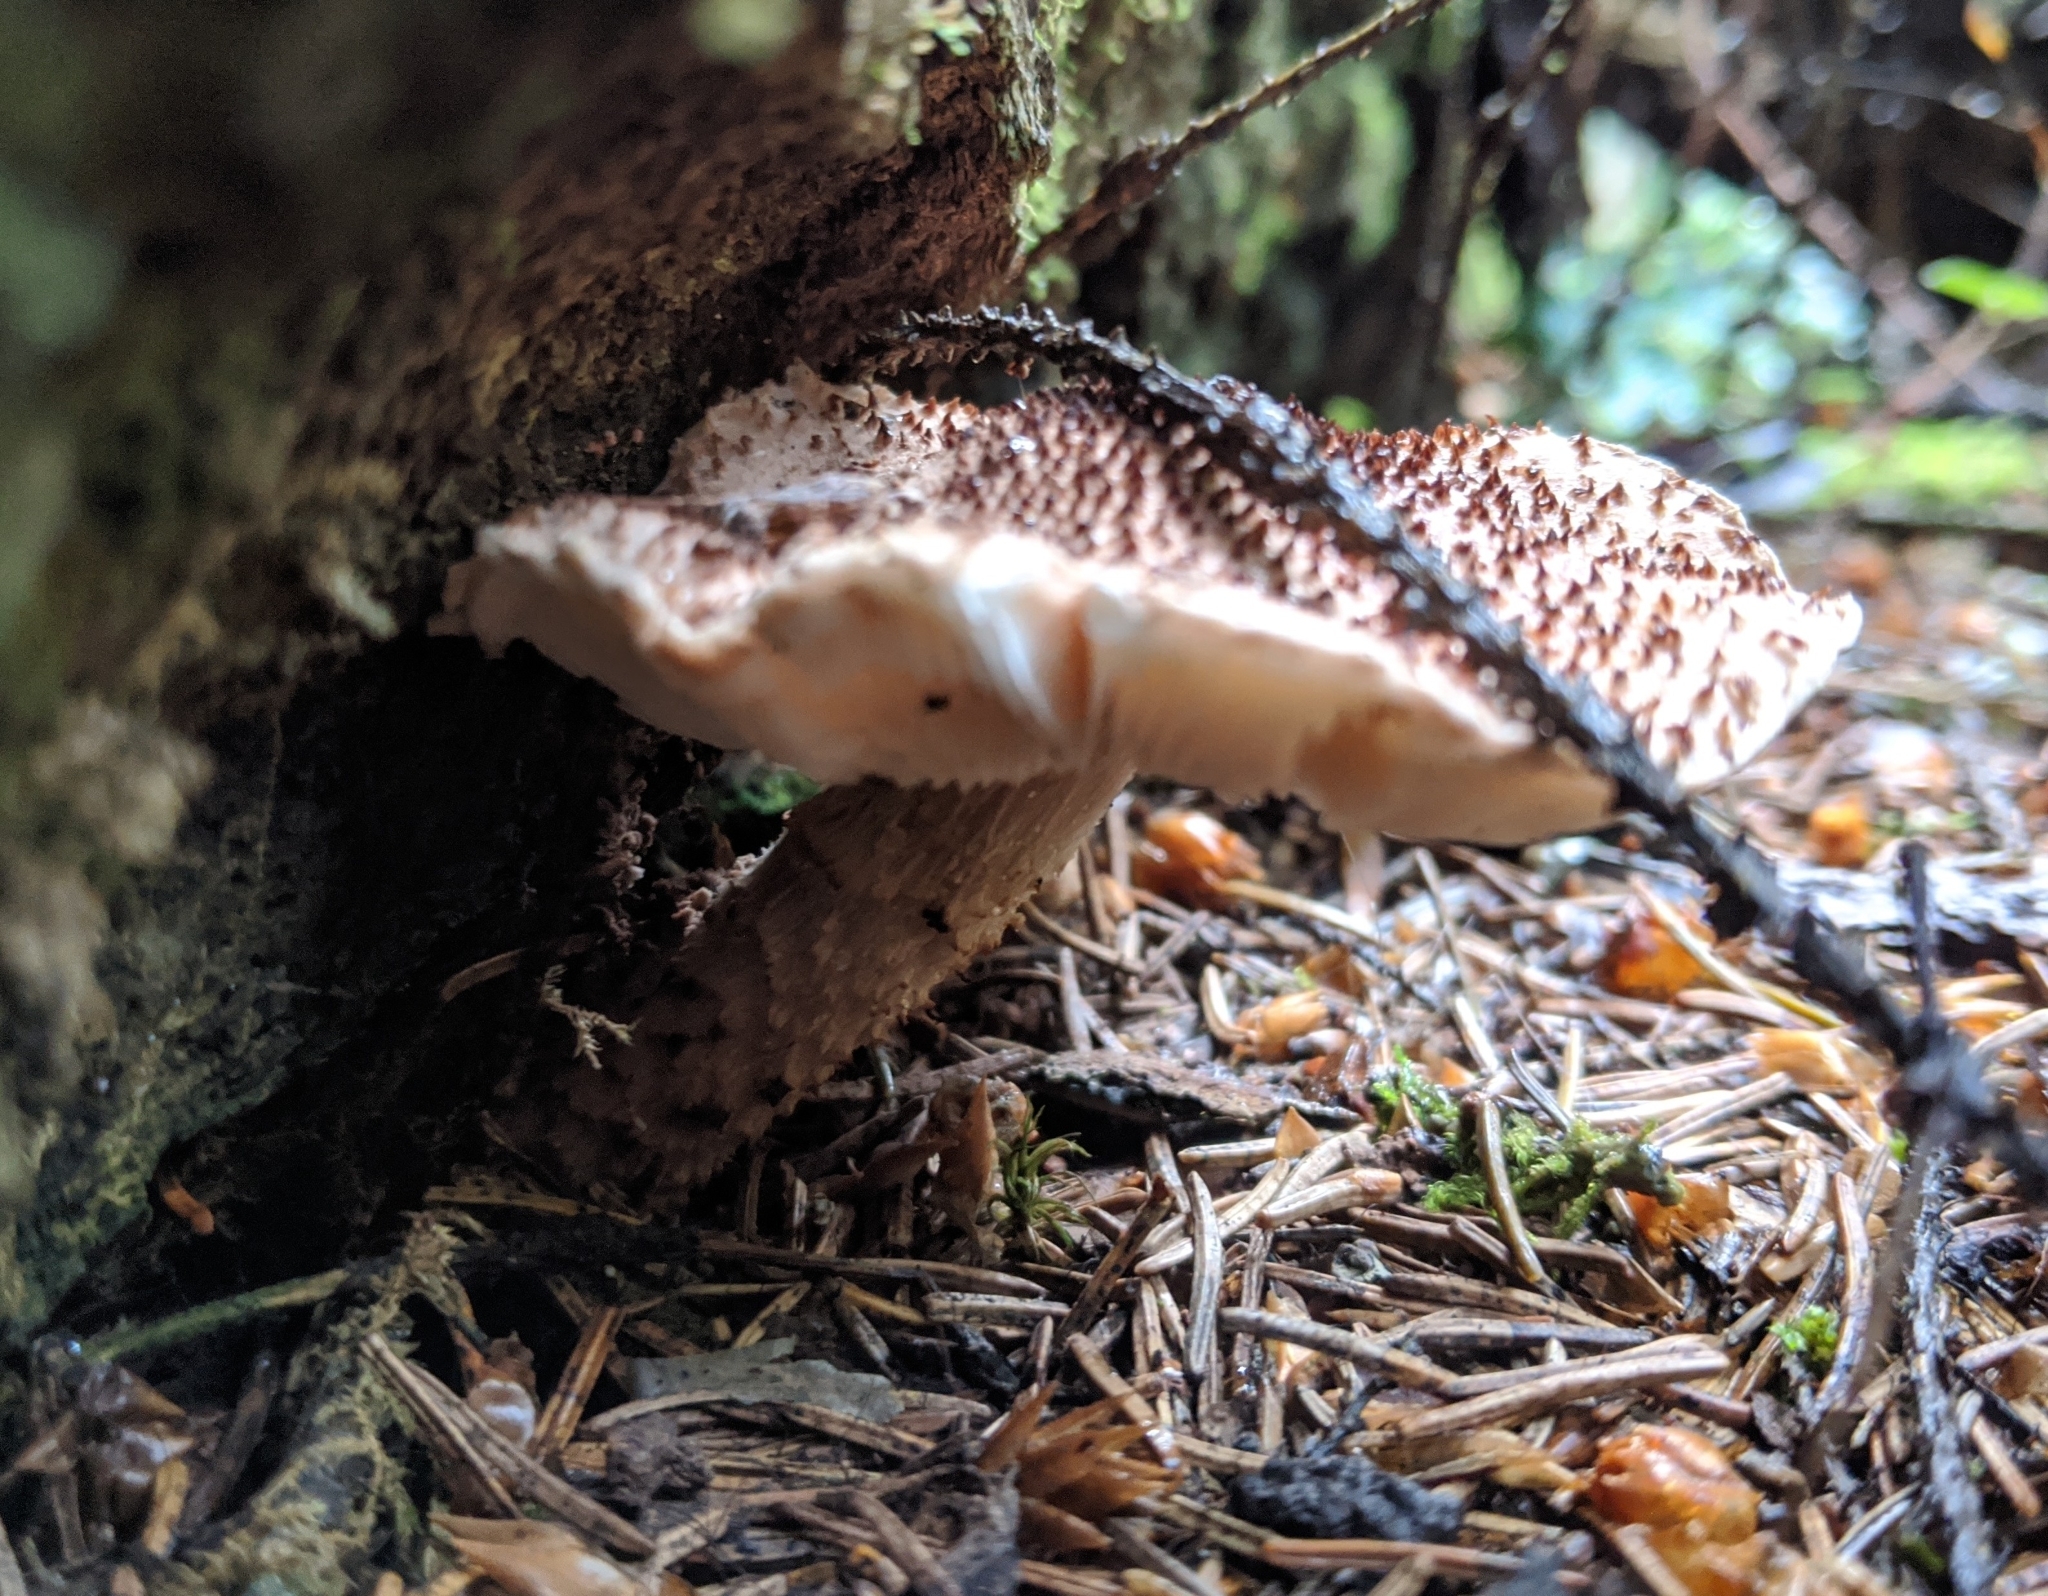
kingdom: Fungi
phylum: Basidiomycota
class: Agaricomycetes
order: Agaricales
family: Agaricaceae
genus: Echinoderma
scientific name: Echinoderma asperum
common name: Freckled dapperling
